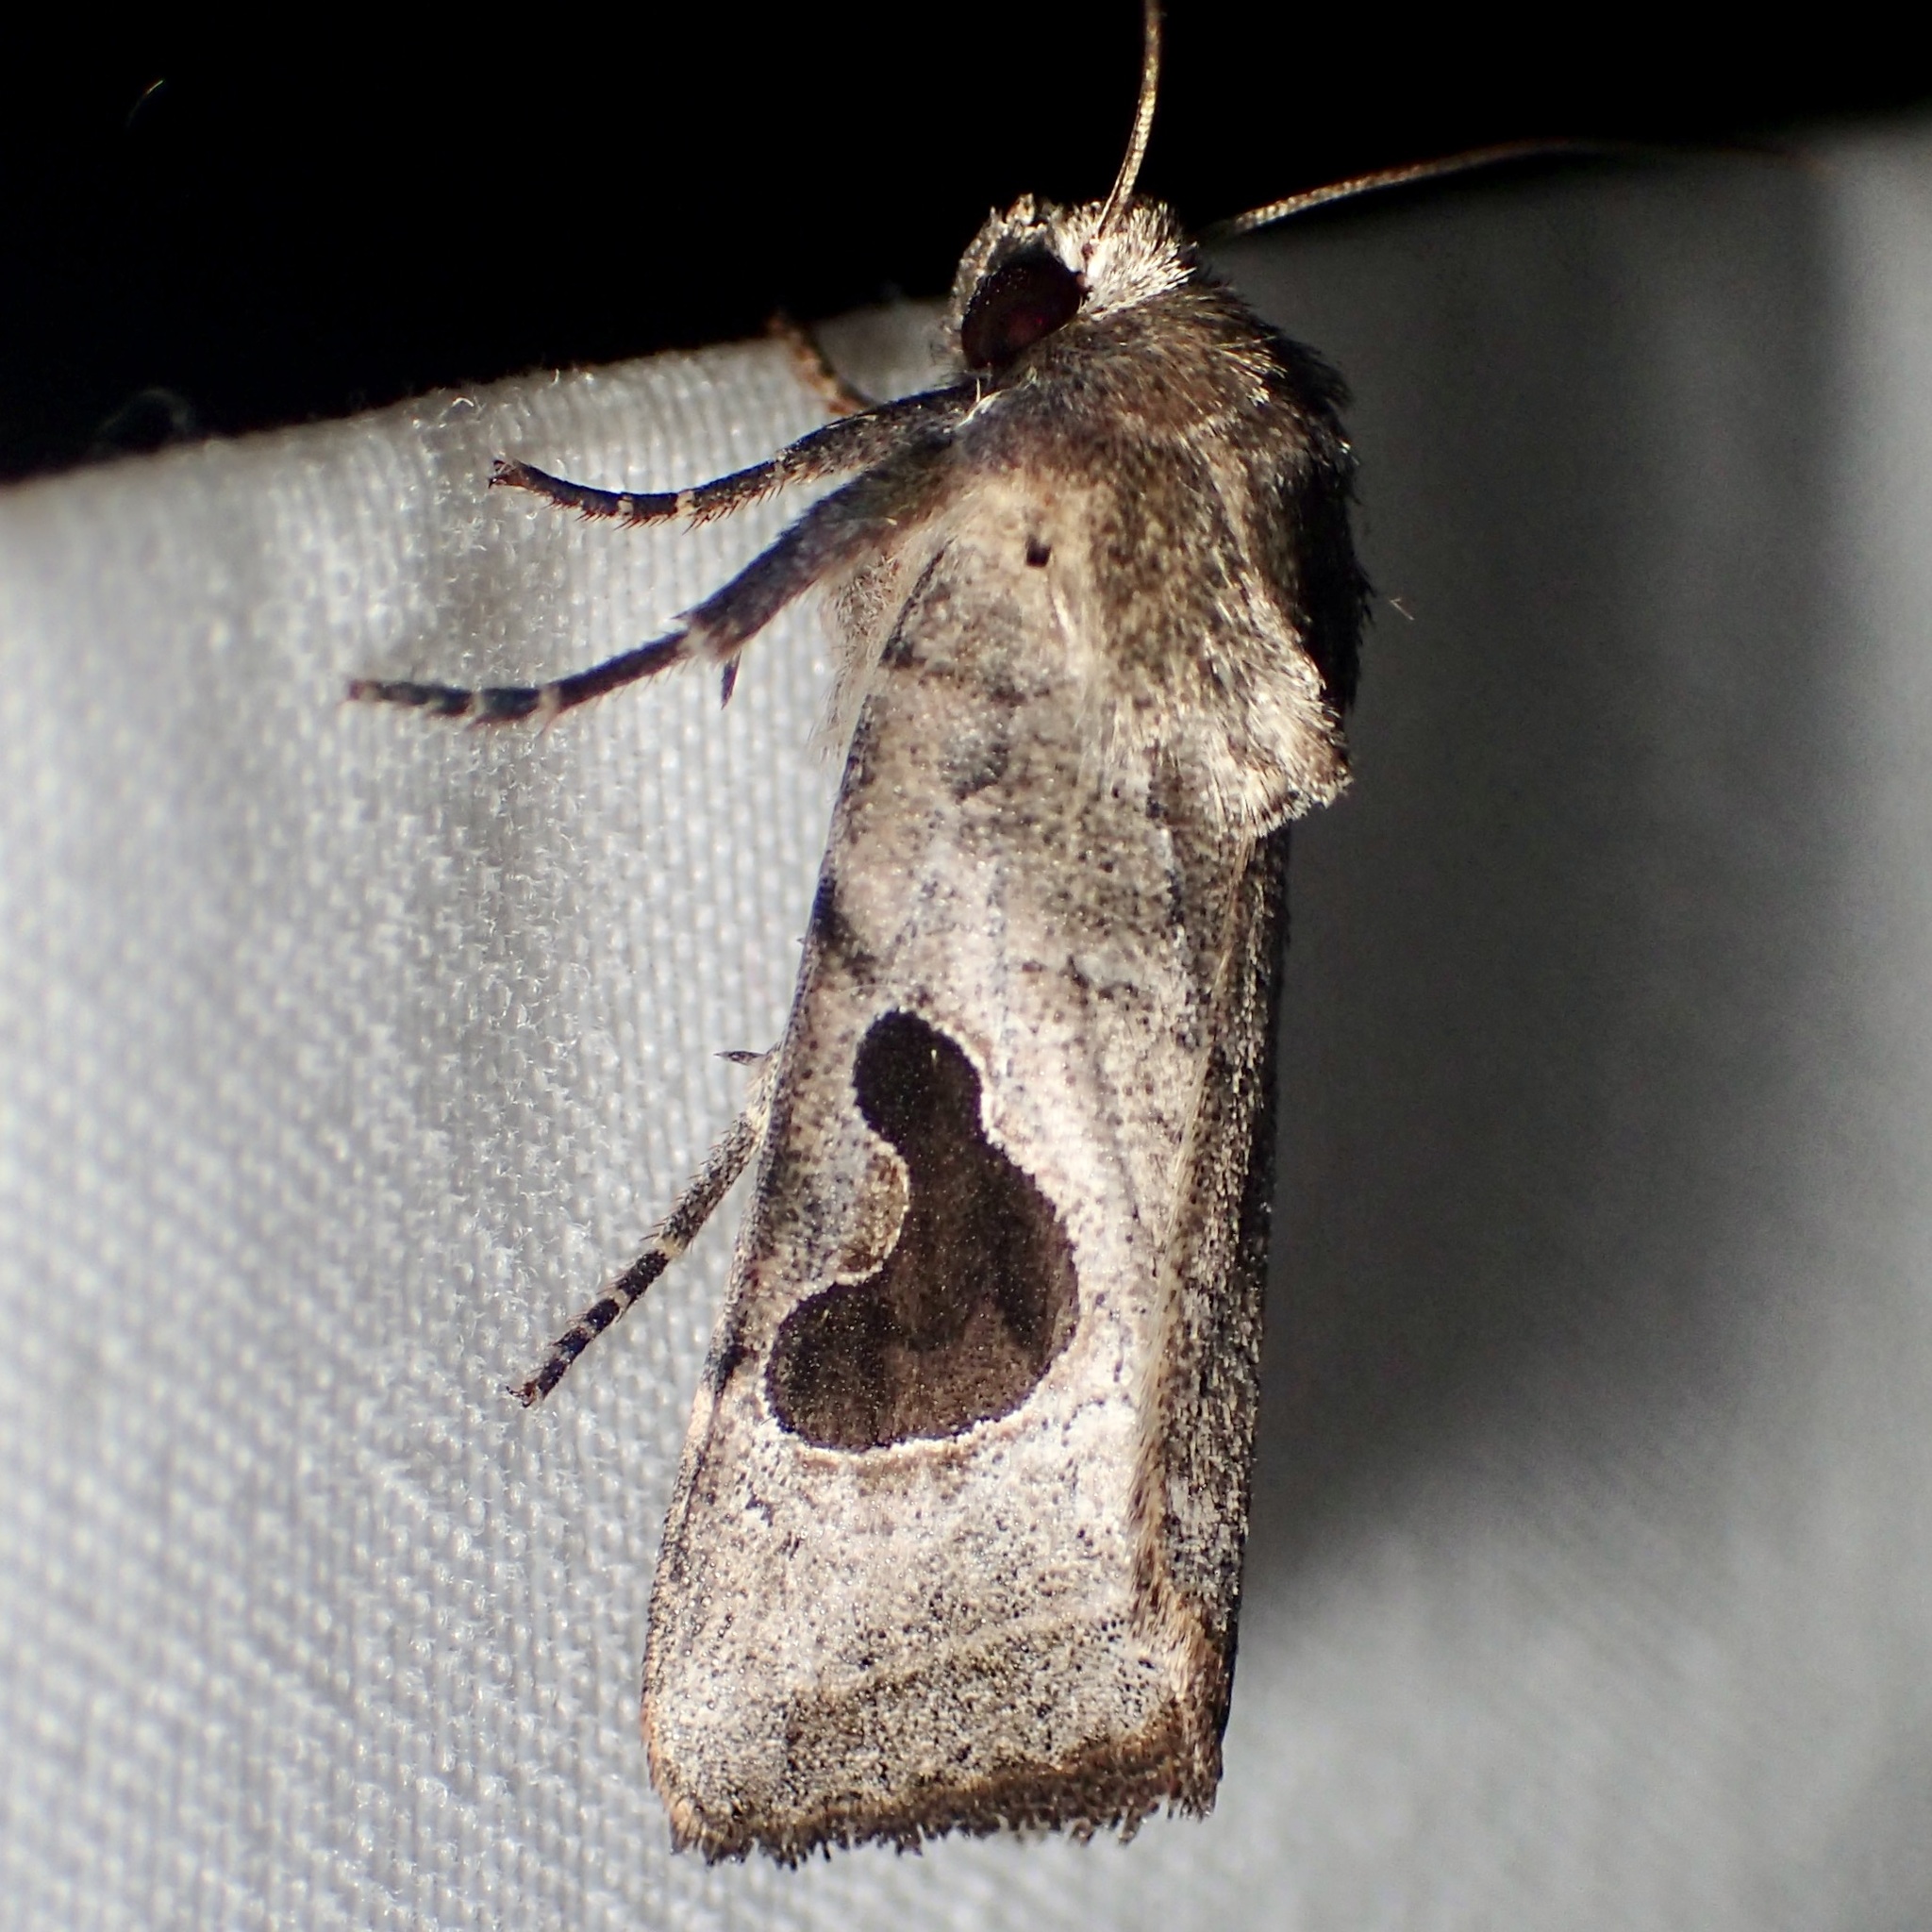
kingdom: Animalia
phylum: Arthropoda
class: Insecta
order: Lepidoptera
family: Noctuidae
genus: Eriopyga
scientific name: Eriopyga lunata
